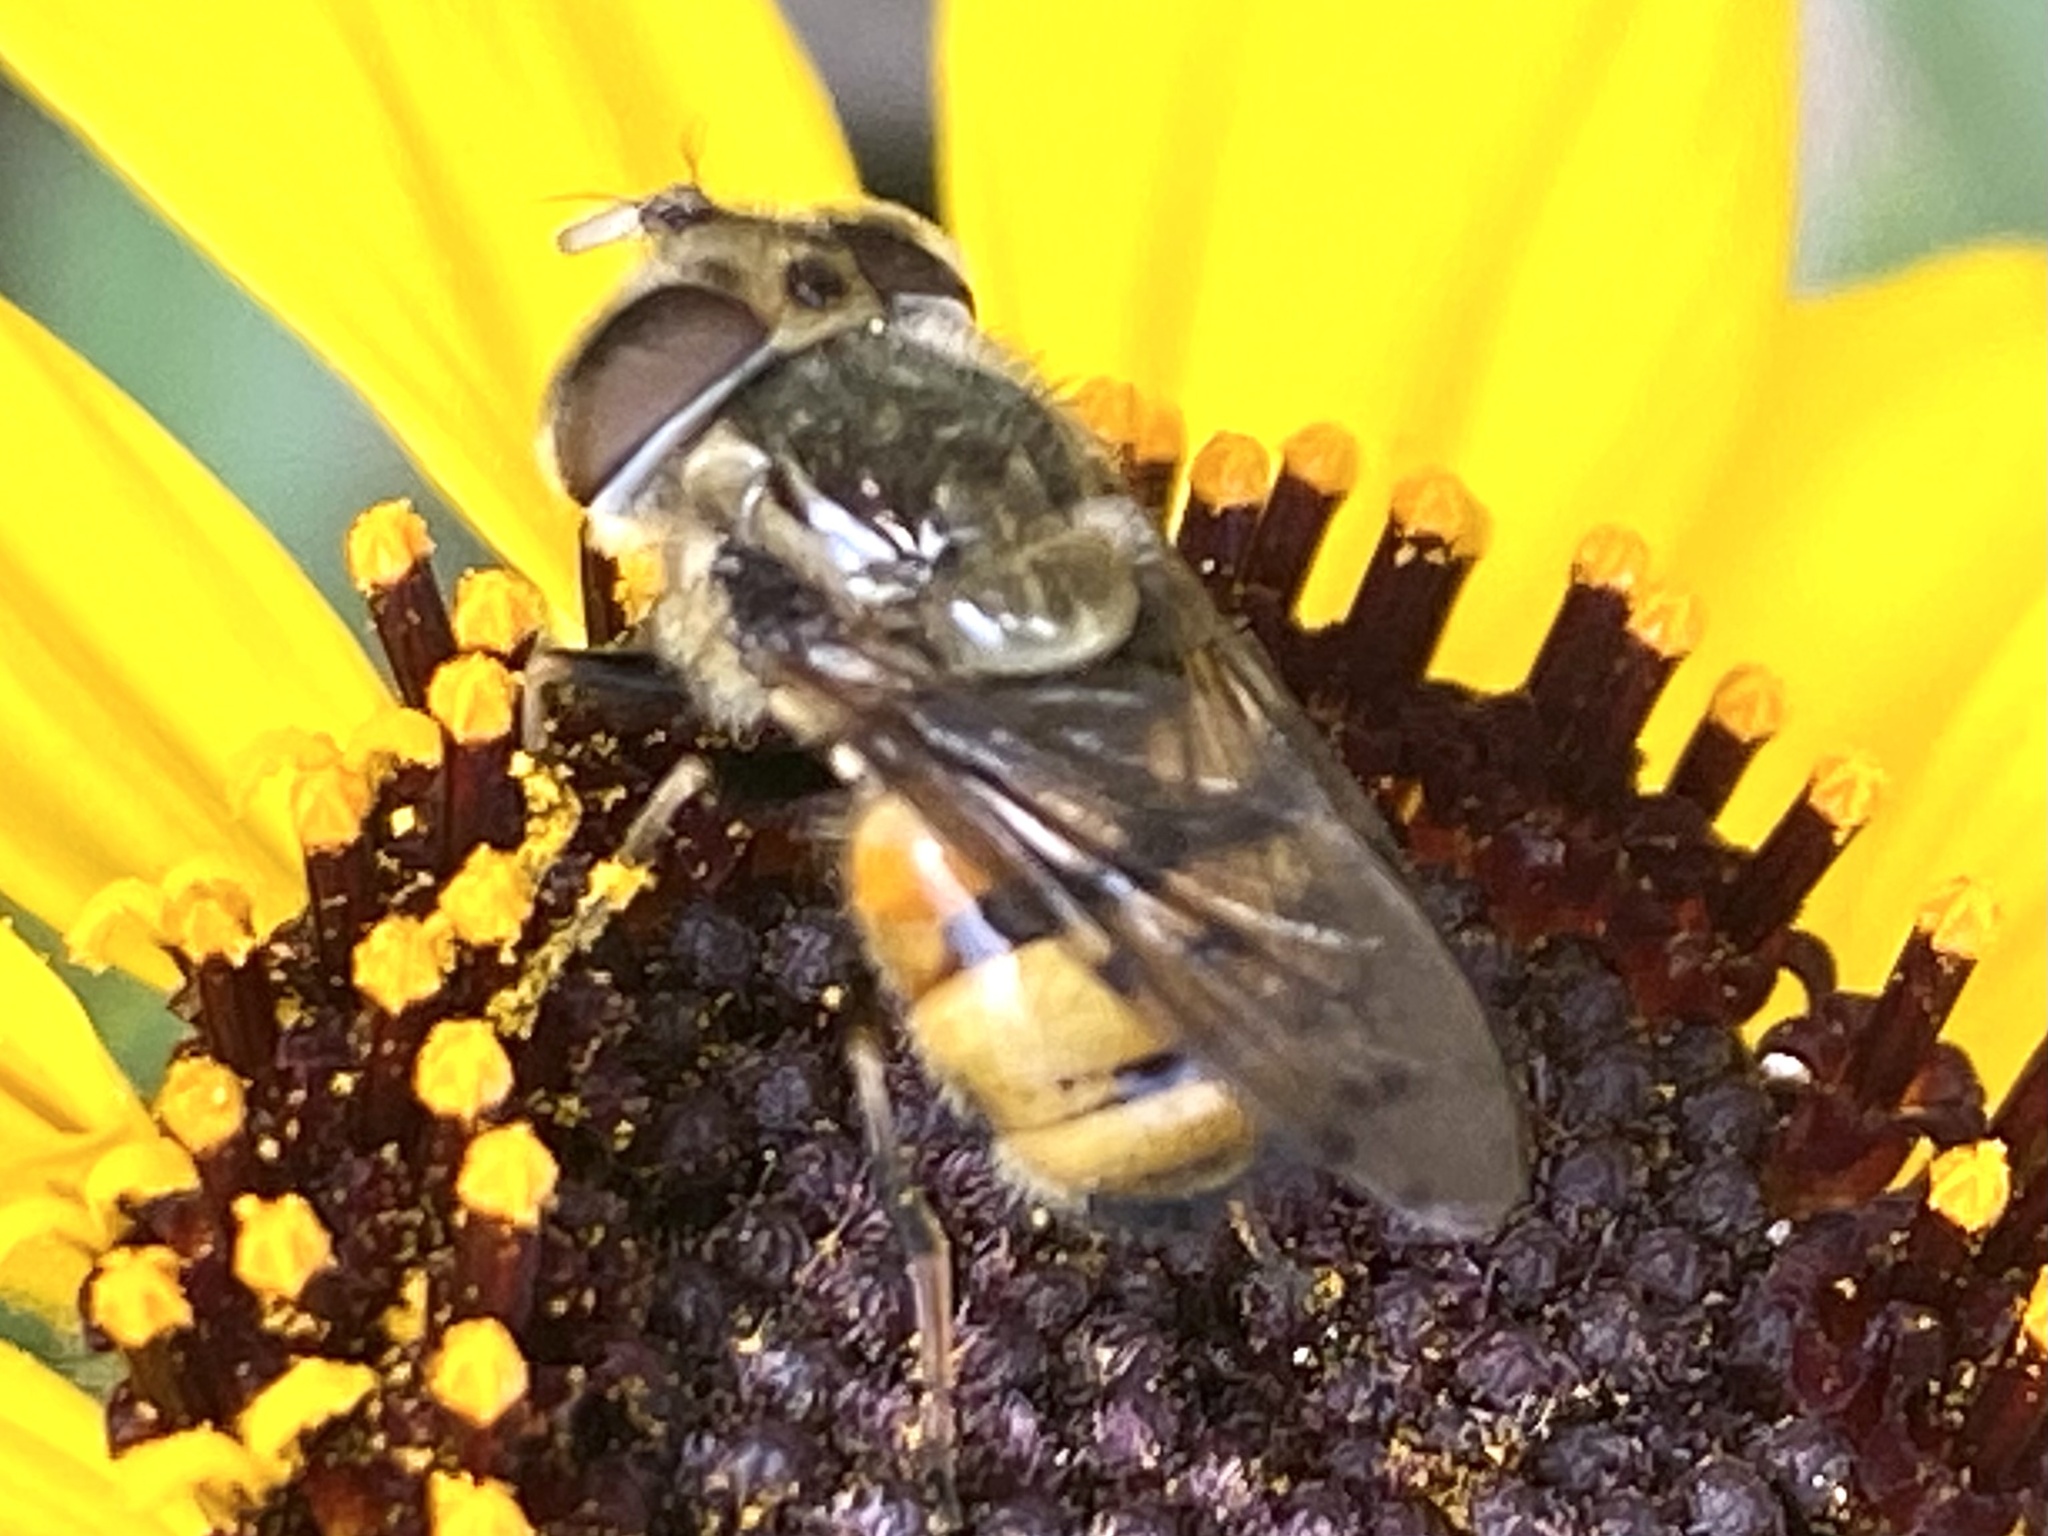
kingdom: Animalia
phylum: Arthropoda
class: Insecta
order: Diptera
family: Syrphidae
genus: Copestylum
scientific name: Copestylum satur
